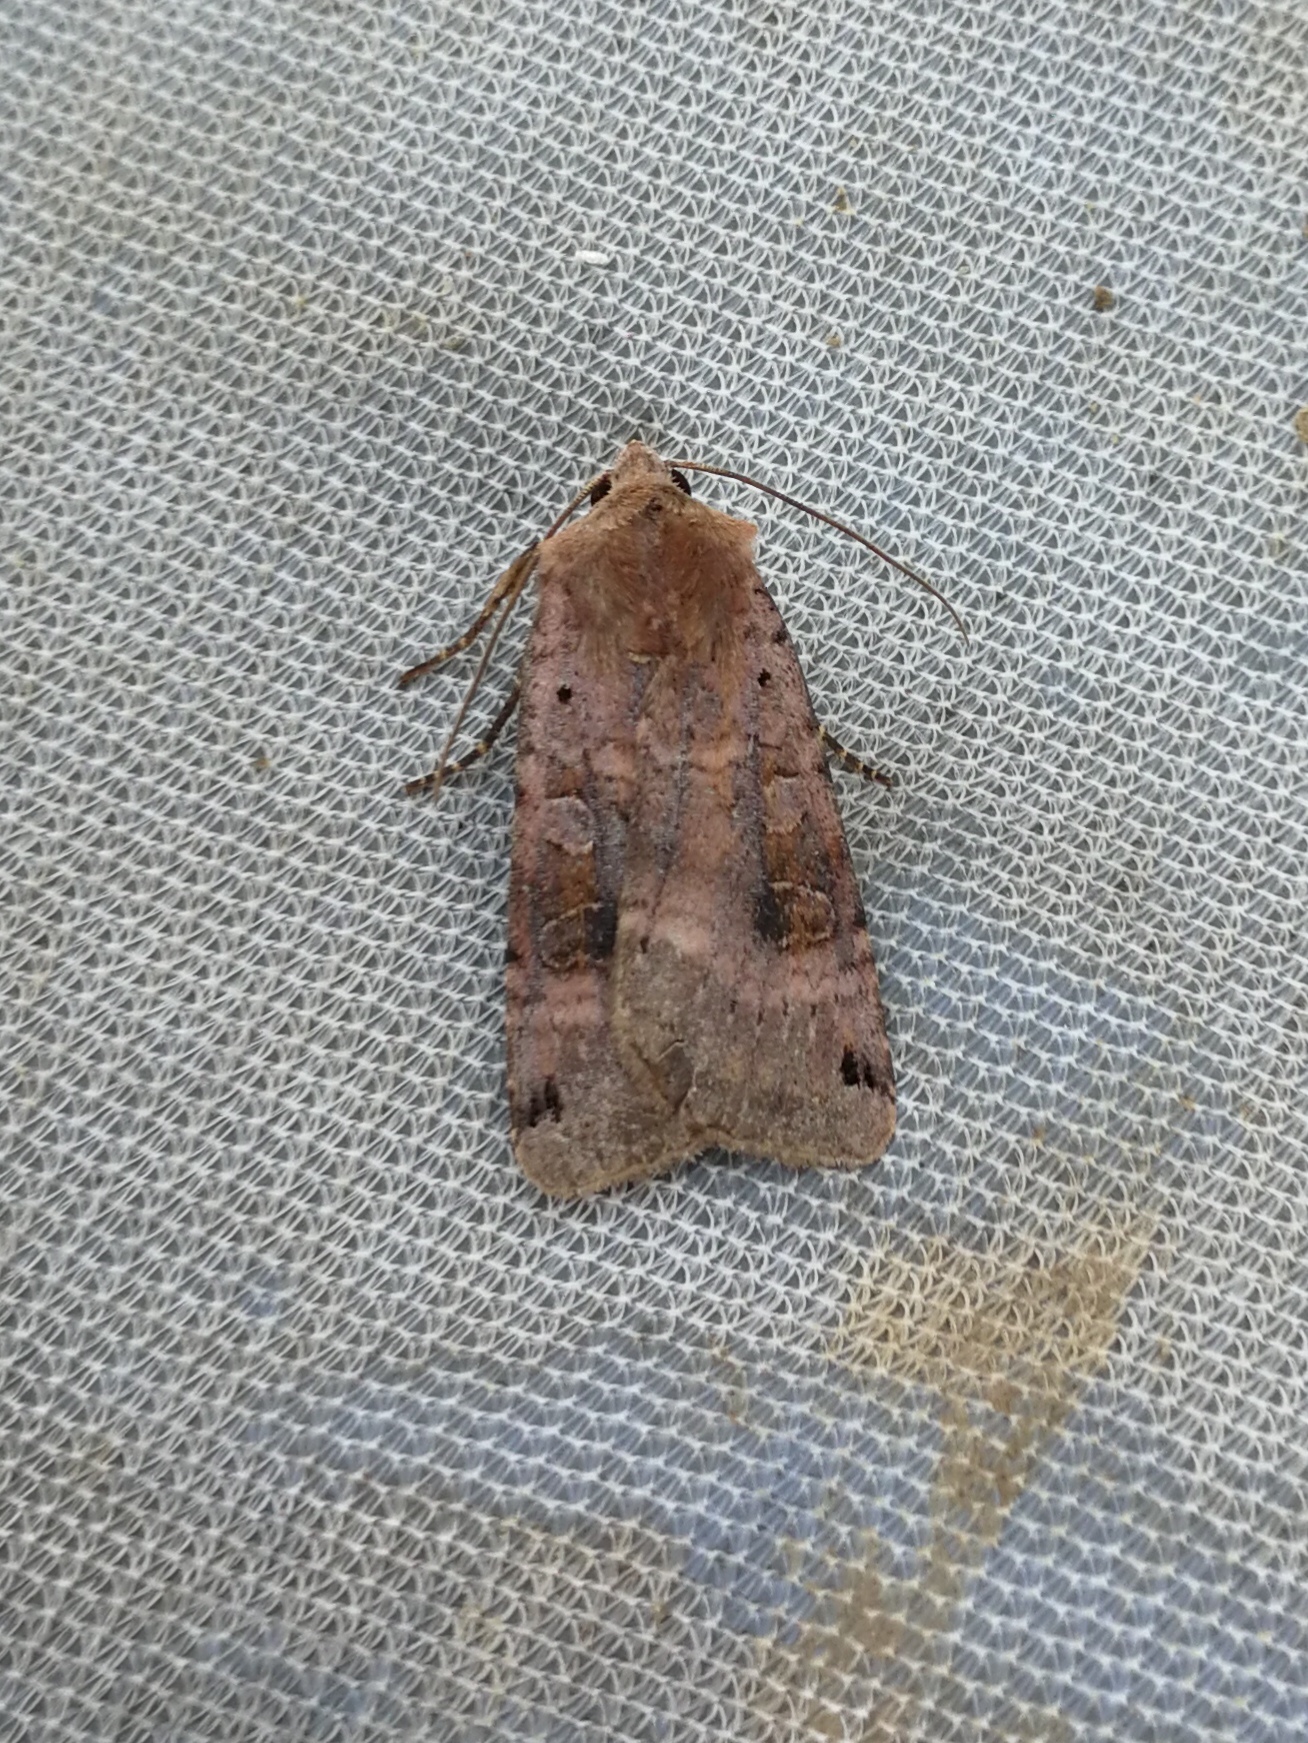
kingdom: Animalia
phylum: Arthropoda
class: Insecta
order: Lepidoptera
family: Noctuidae
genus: Xestia
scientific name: Xestia baja
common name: Dotted clay
